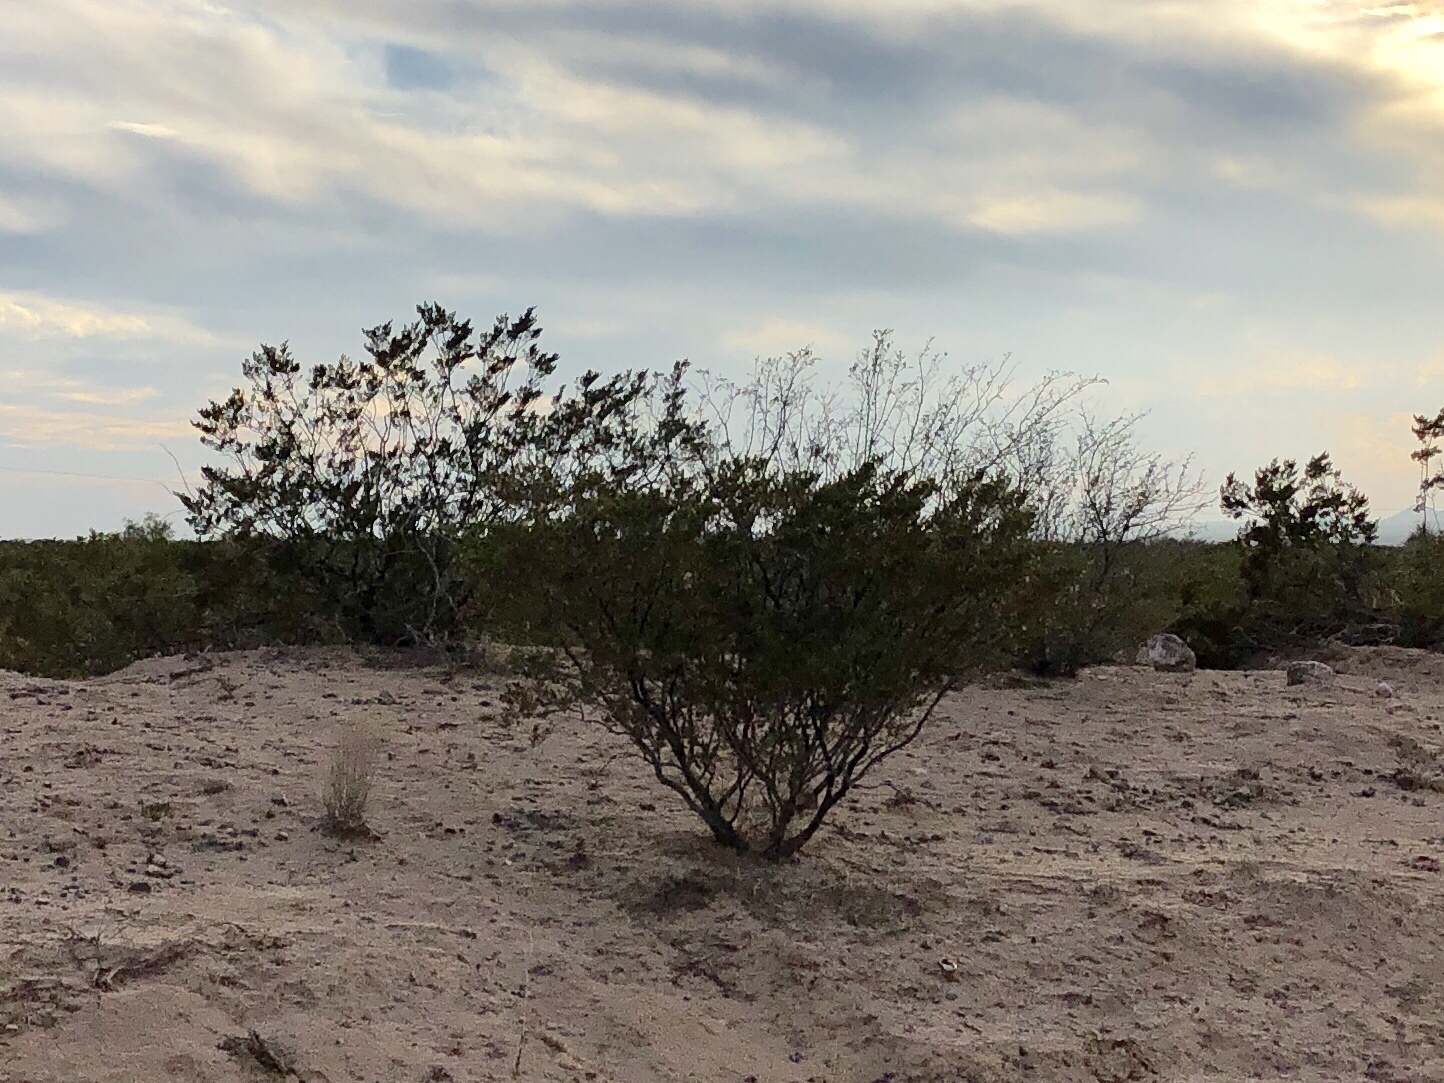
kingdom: Plantae
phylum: Tracheophyta
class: Magnoliopsida
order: Zygophyllales
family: Zygophyllaceae
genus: Larrea
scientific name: Larrea tridentata
